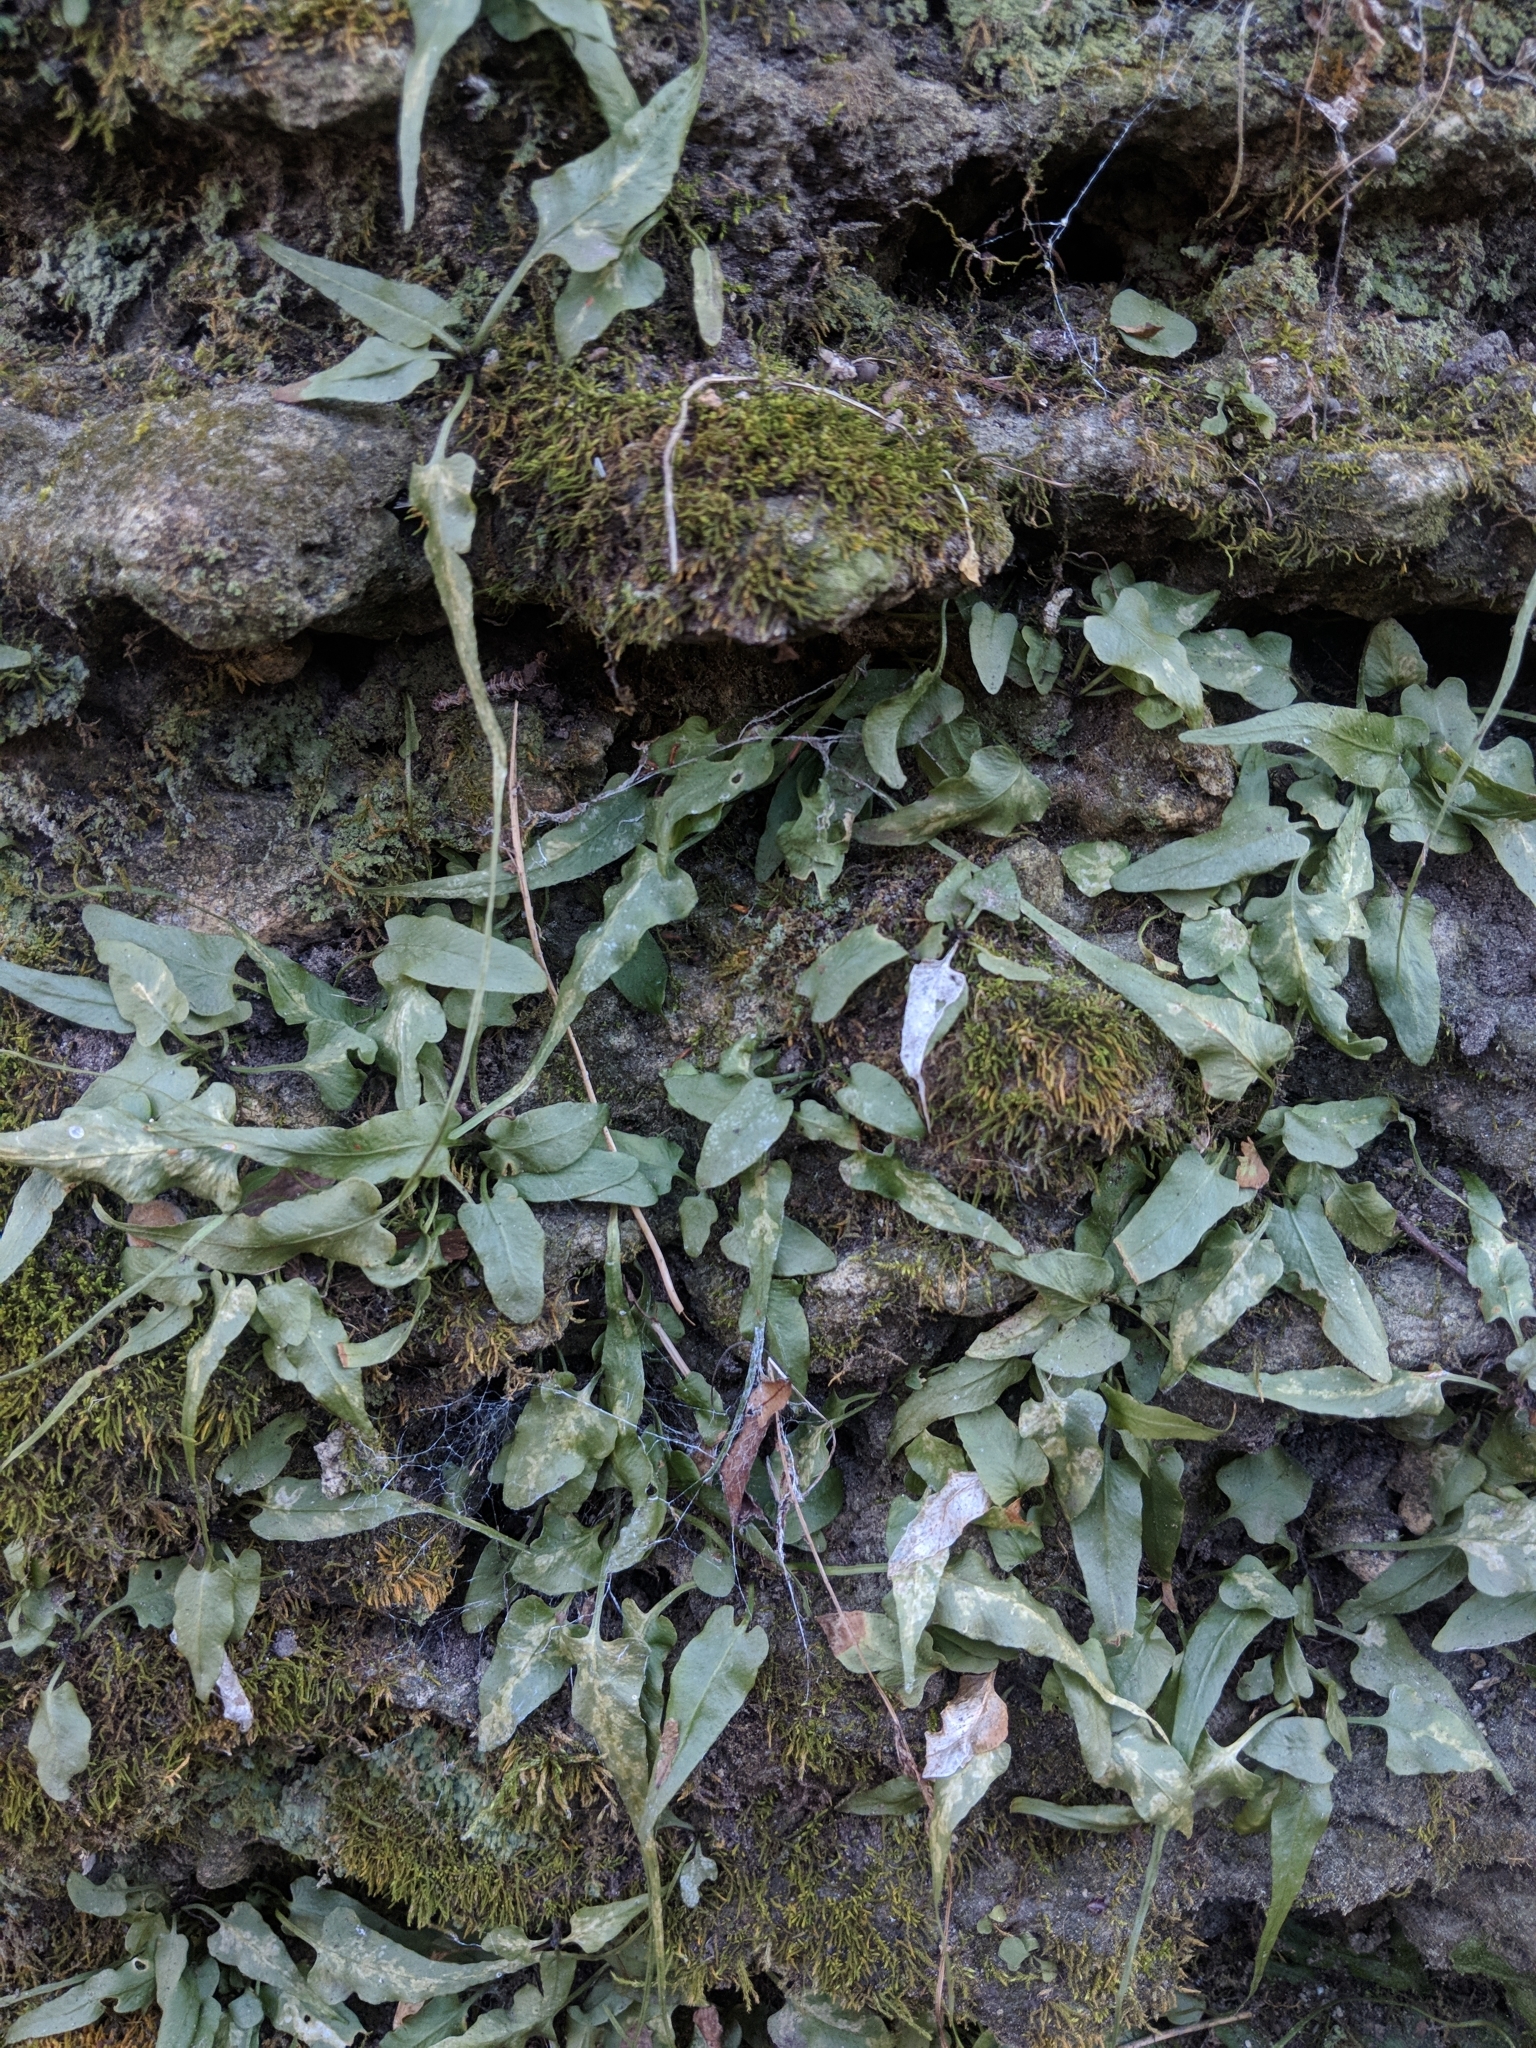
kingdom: Plantae
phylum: Tracheophyta
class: Polypodiopsida
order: Polypodiales
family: Aspleniaceae
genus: Asplenium
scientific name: Asplenium rhizophyllum
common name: Walking fern
